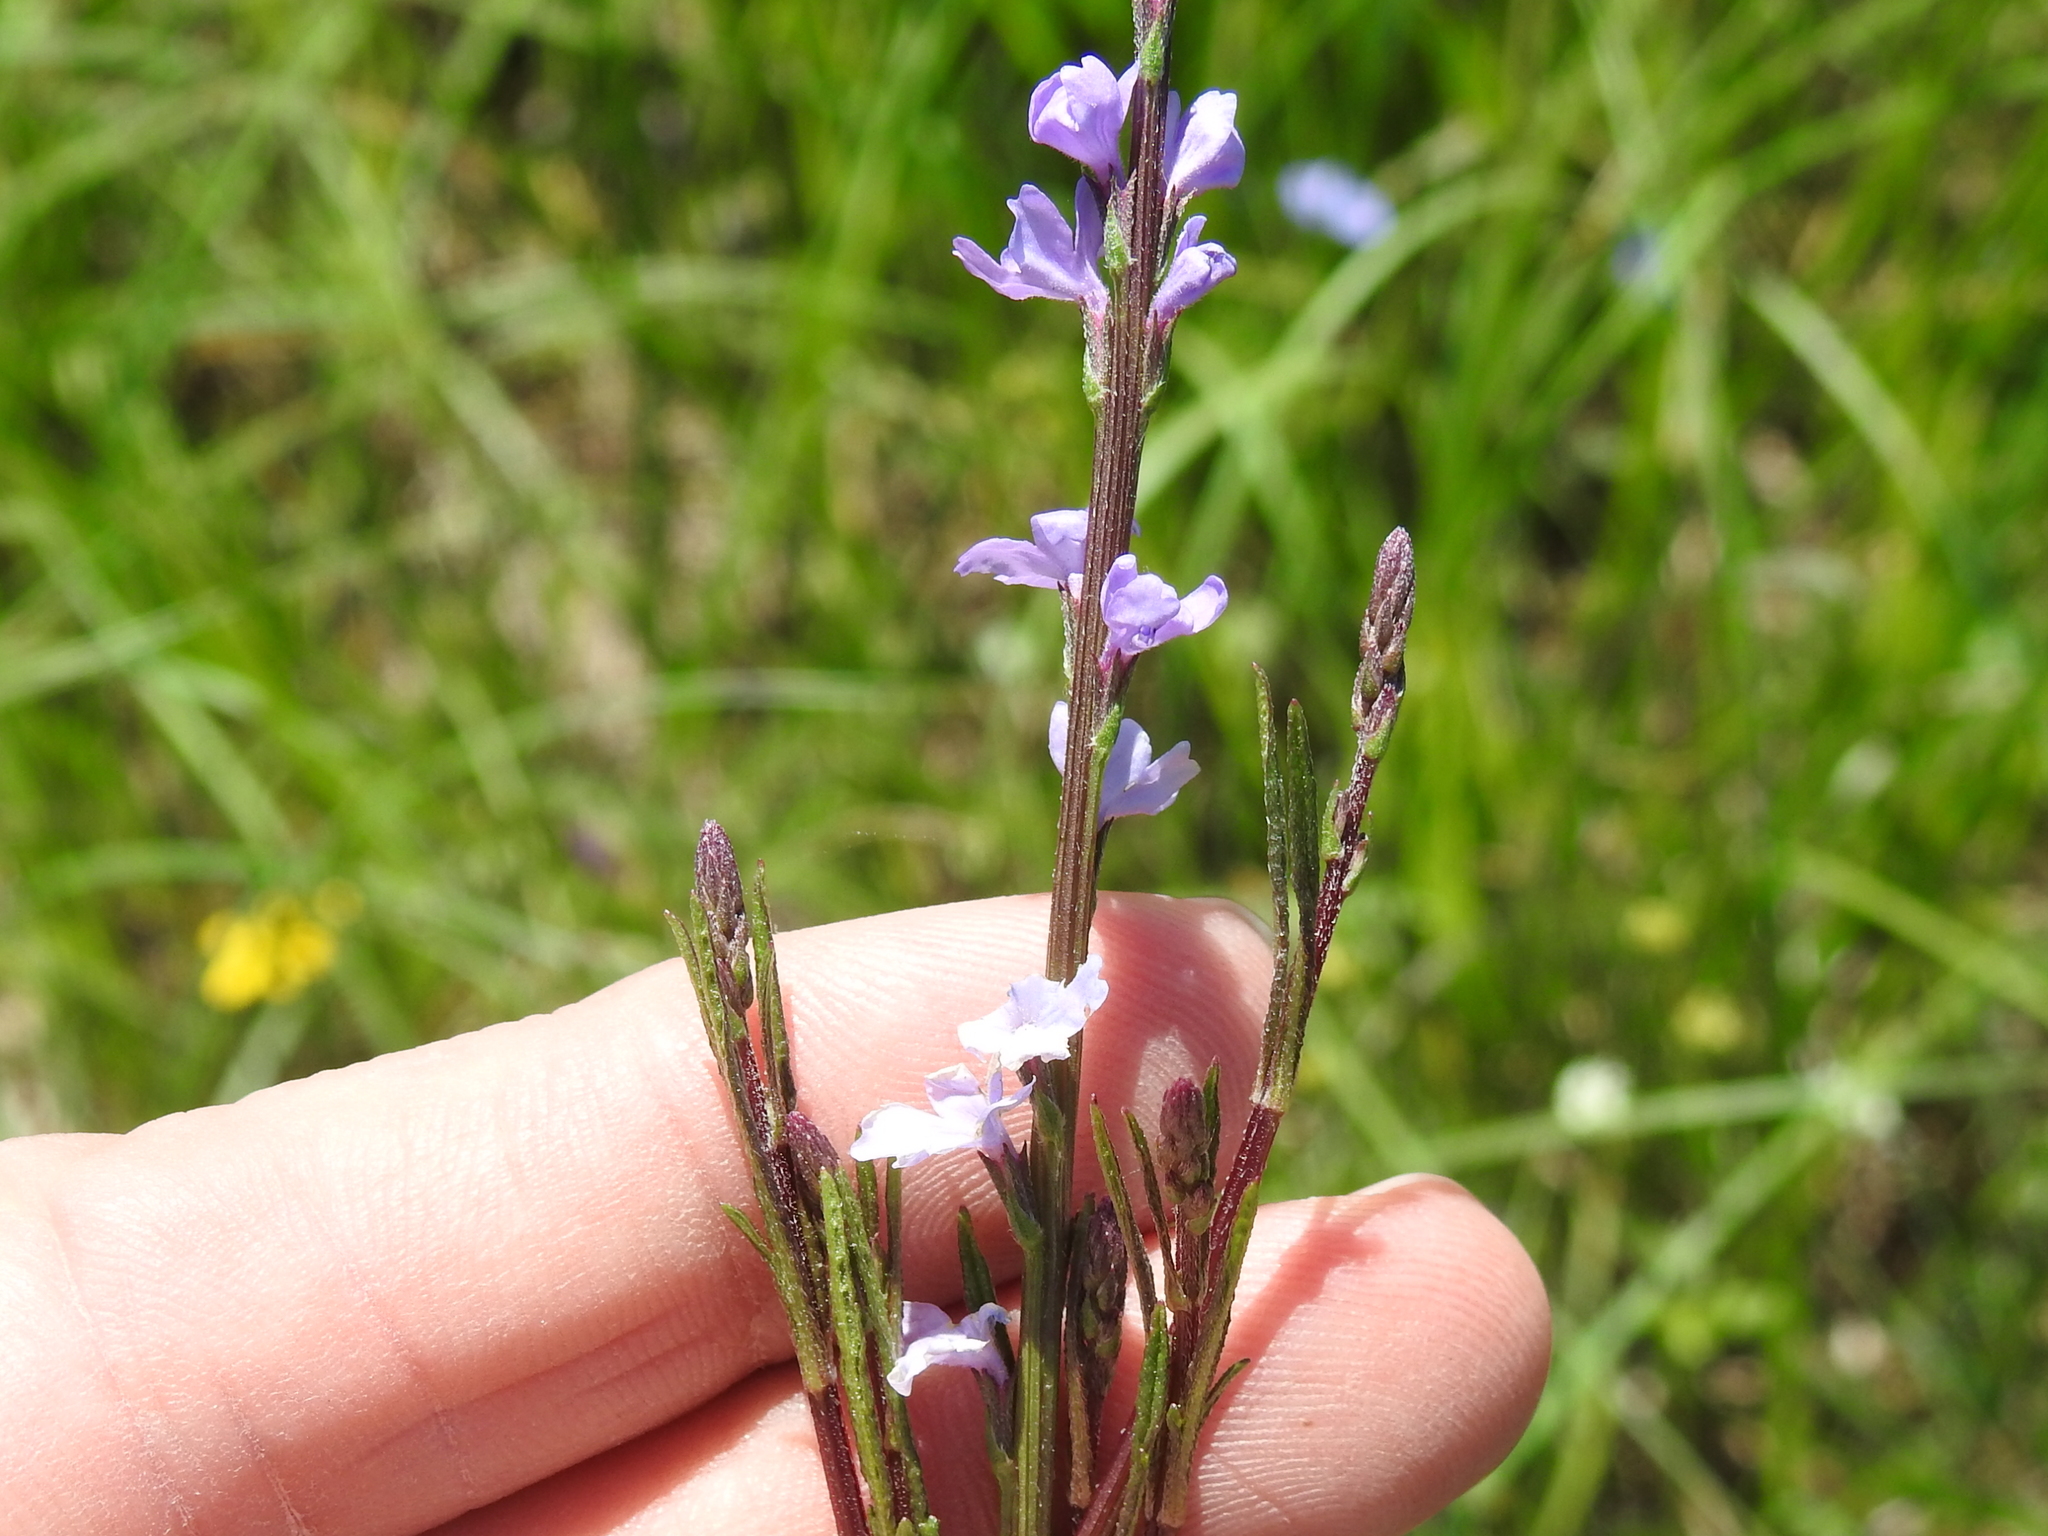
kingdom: Plantae
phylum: Tracheophyta
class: Magnoliopsida
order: Lamiales
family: Verbenaceae
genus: Verbena
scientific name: Verbena halei
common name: Texas vervain
